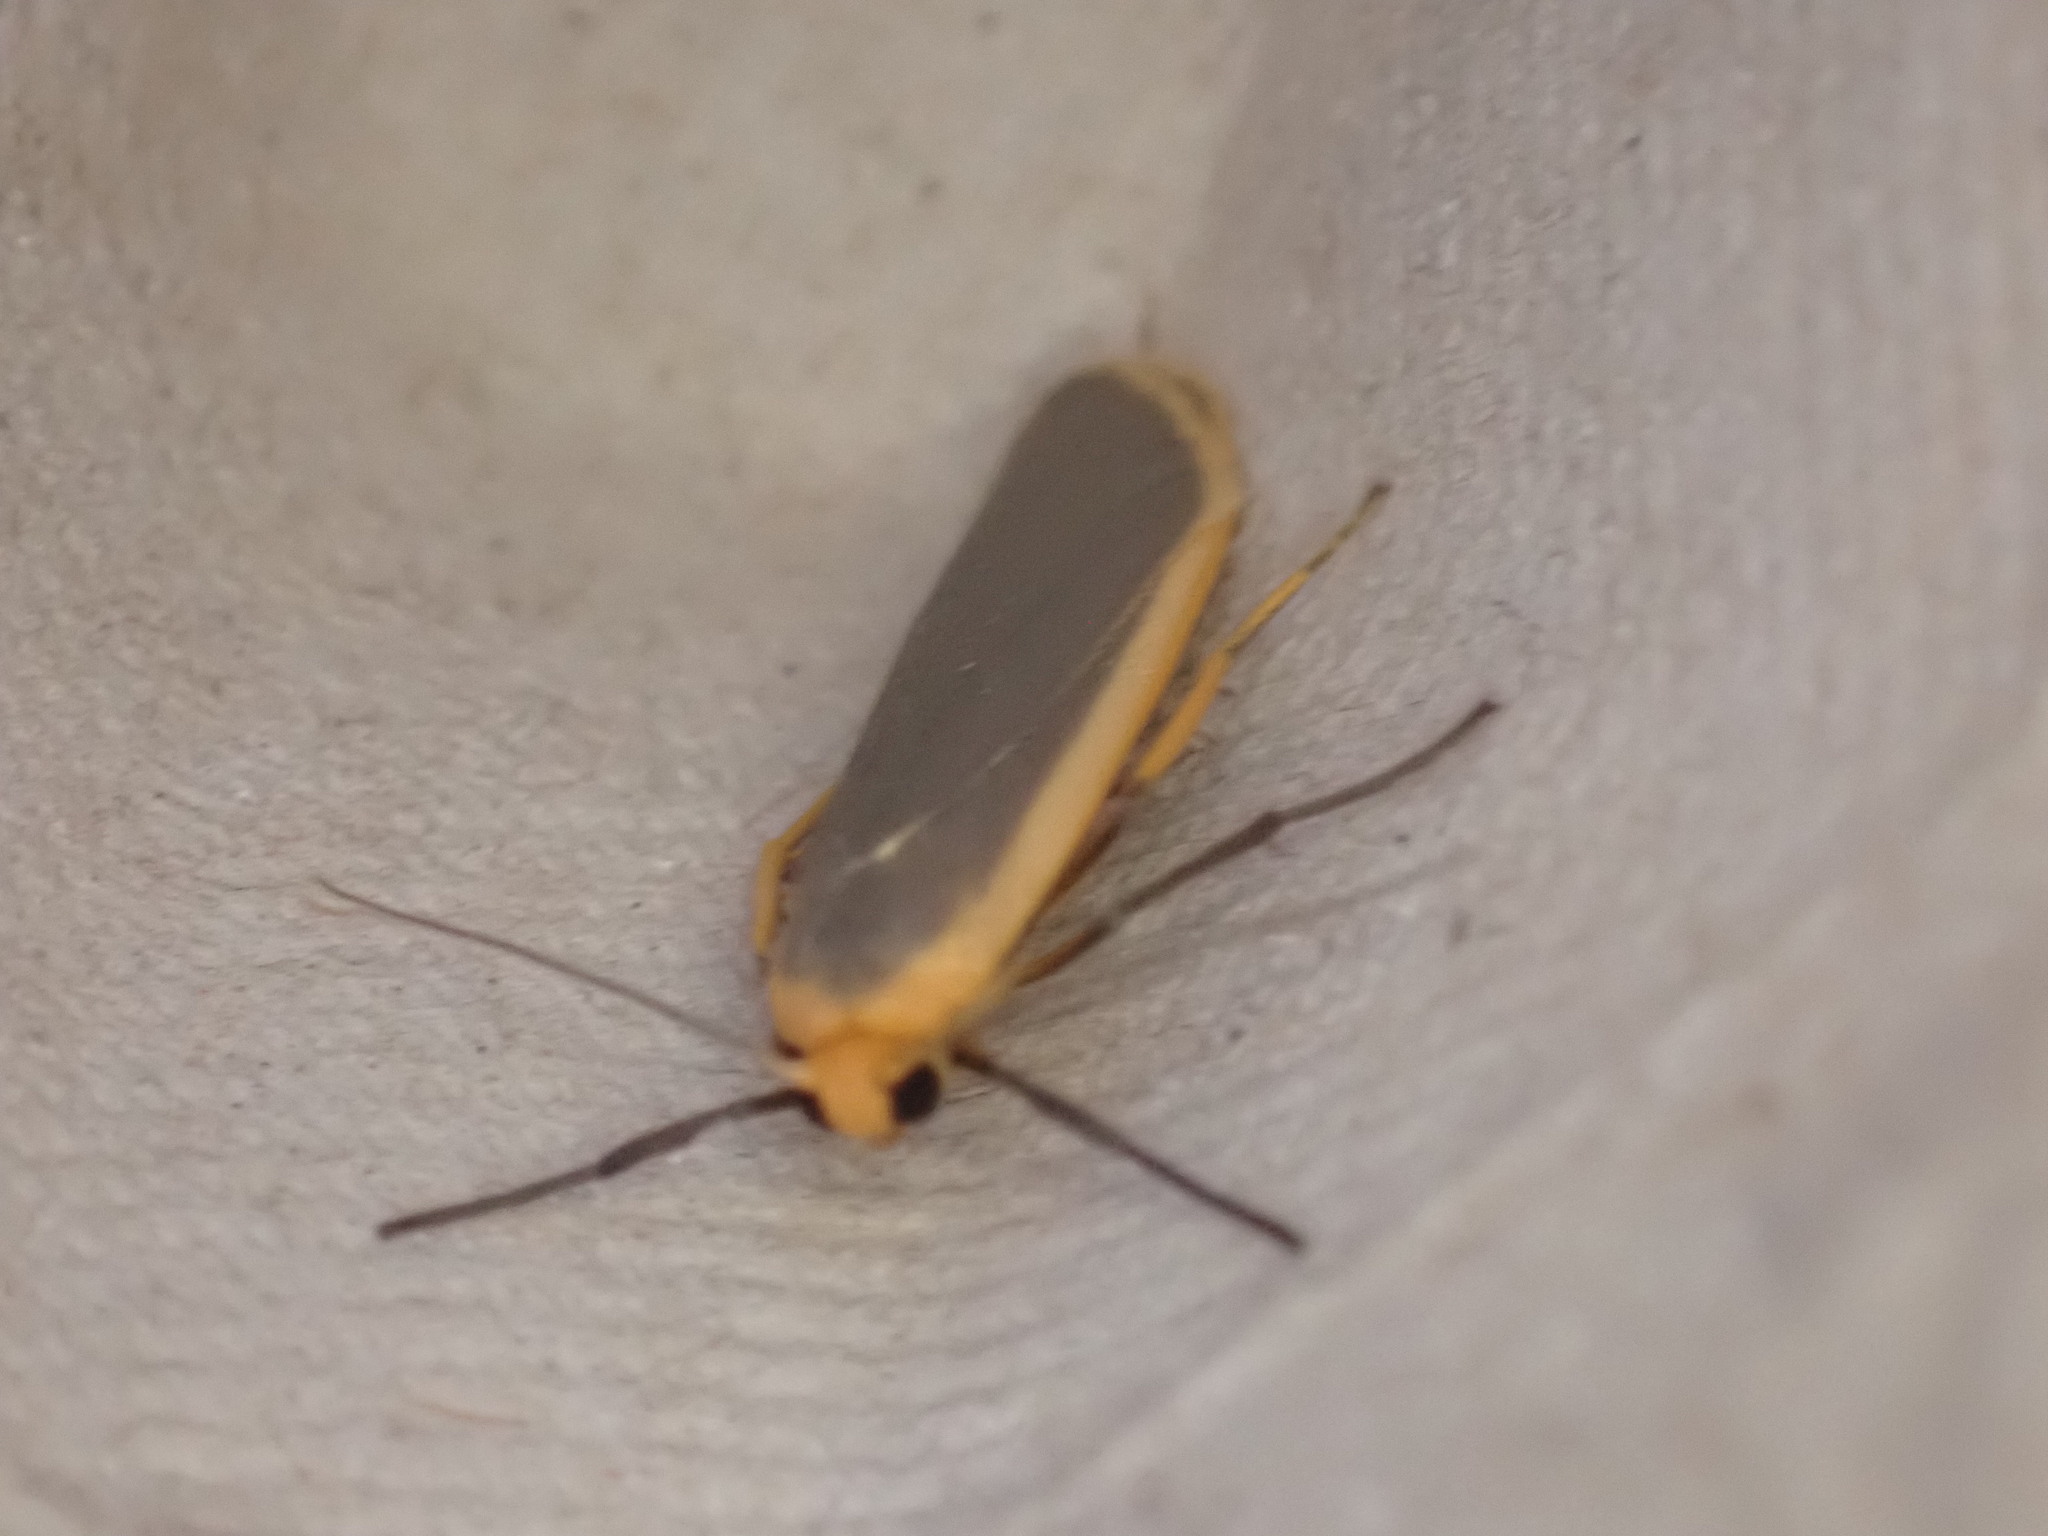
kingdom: Animalia
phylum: Arthropoda
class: Insecta
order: Lepidoptera
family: Erebidae
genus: Nyea
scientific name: Nyea lurideola
